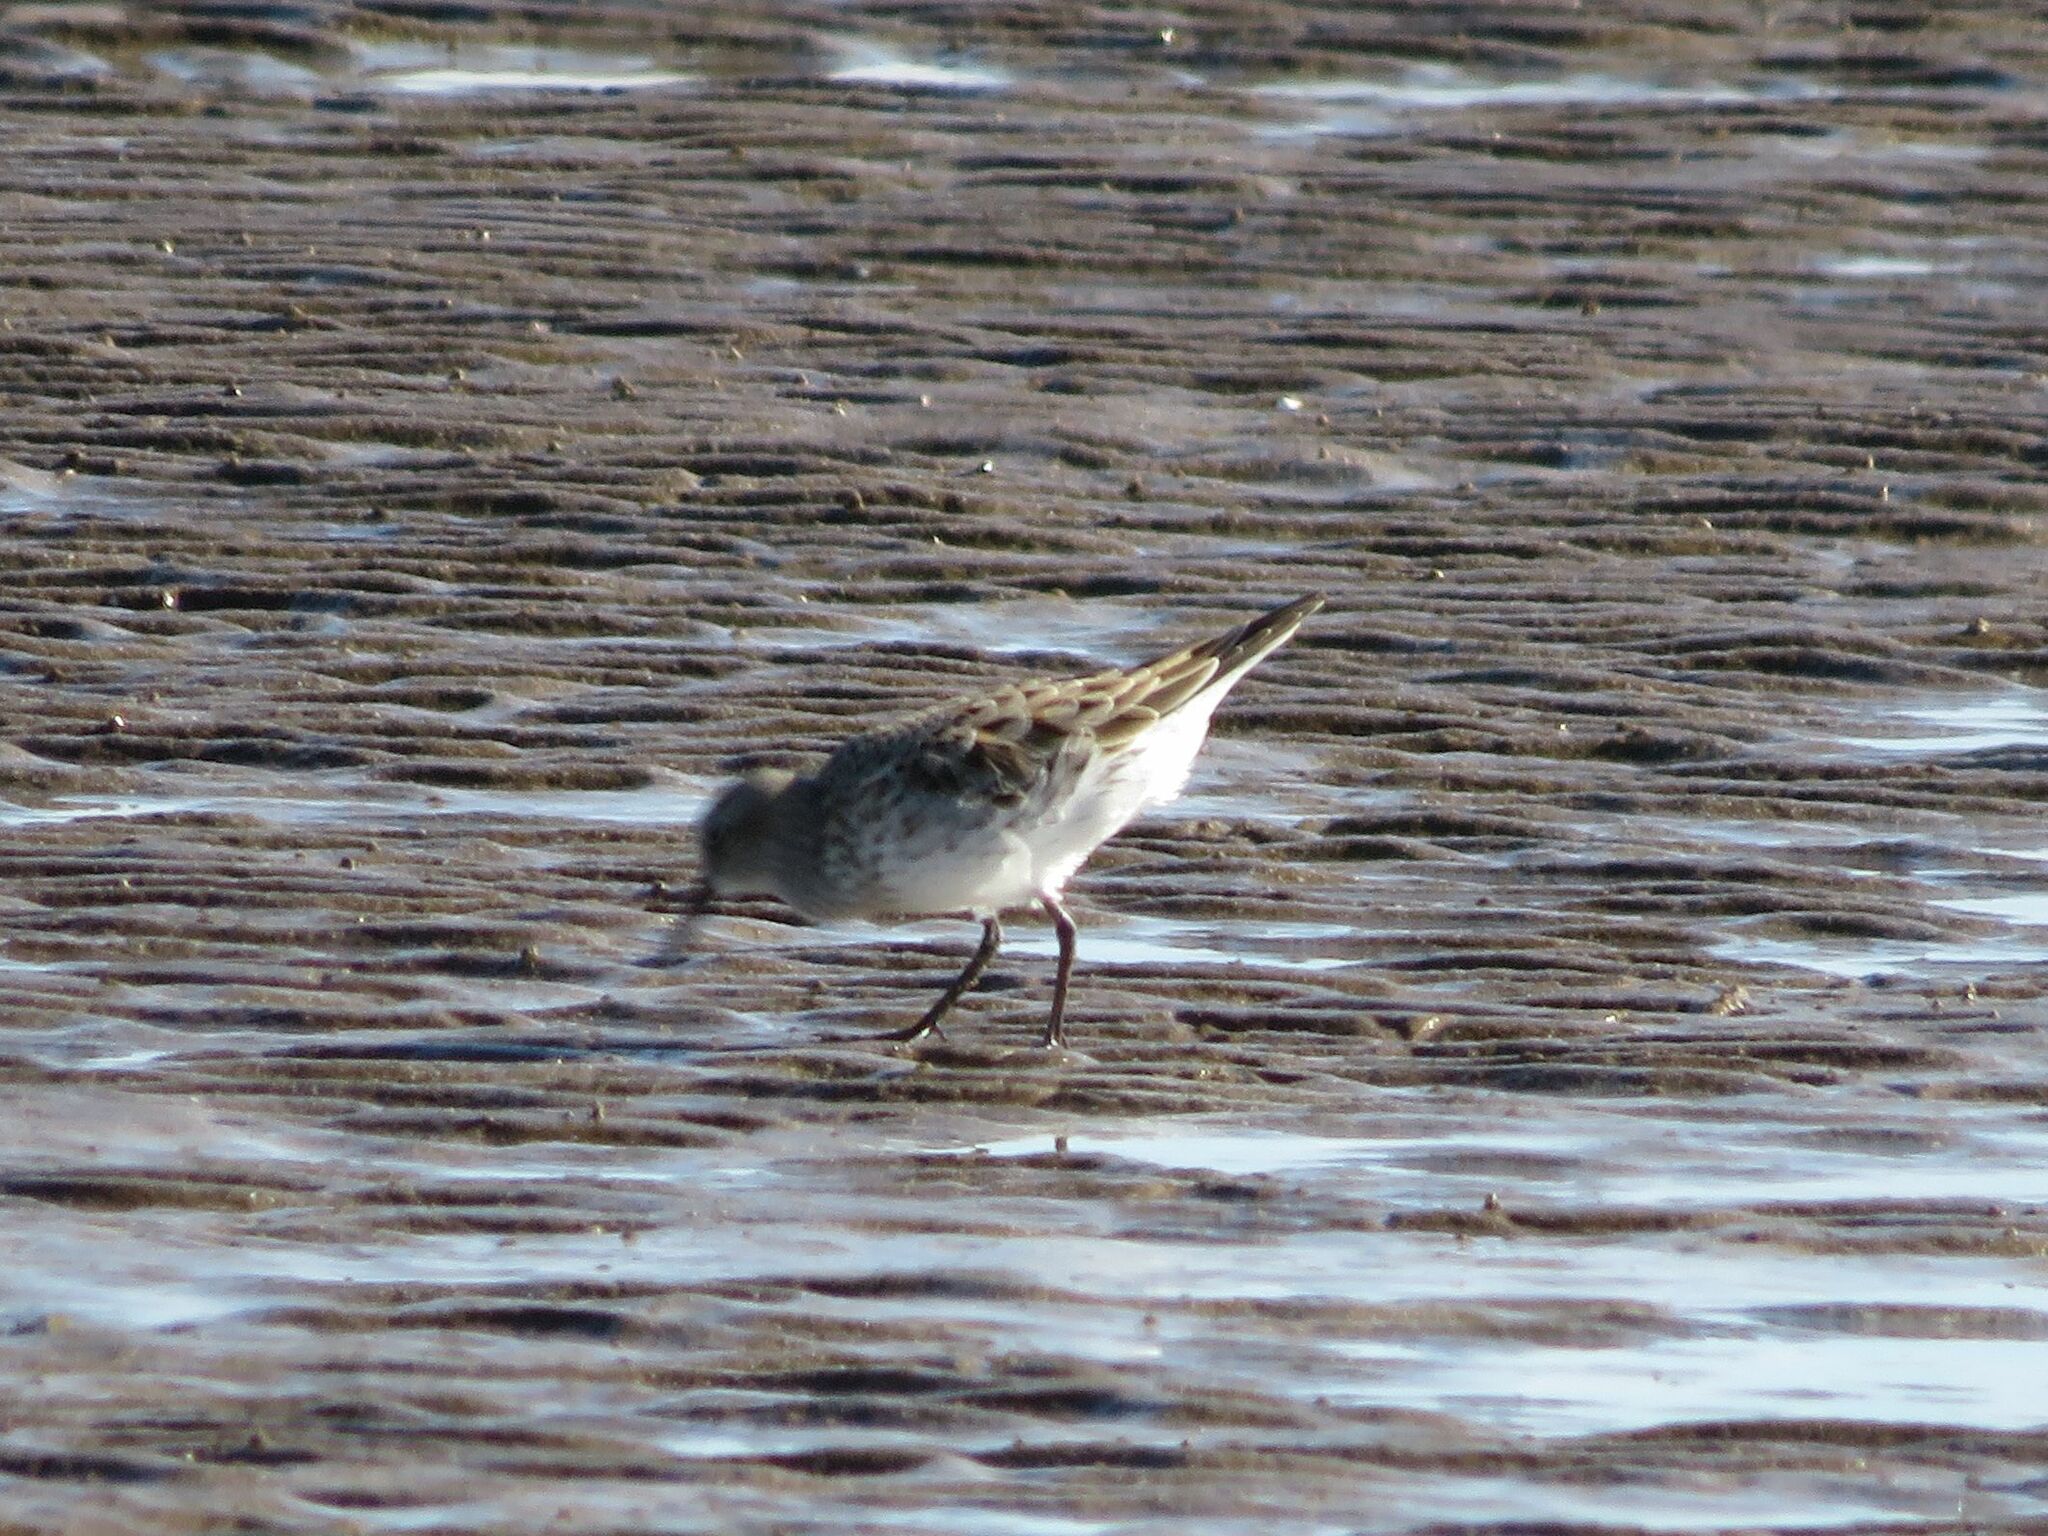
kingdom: Animalia
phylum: Chordata
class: Aves
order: Charadriiformes
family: Scolopacidae
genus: Calidris
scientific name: Calidris fuscicollis
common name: White-rumped sandpiper
